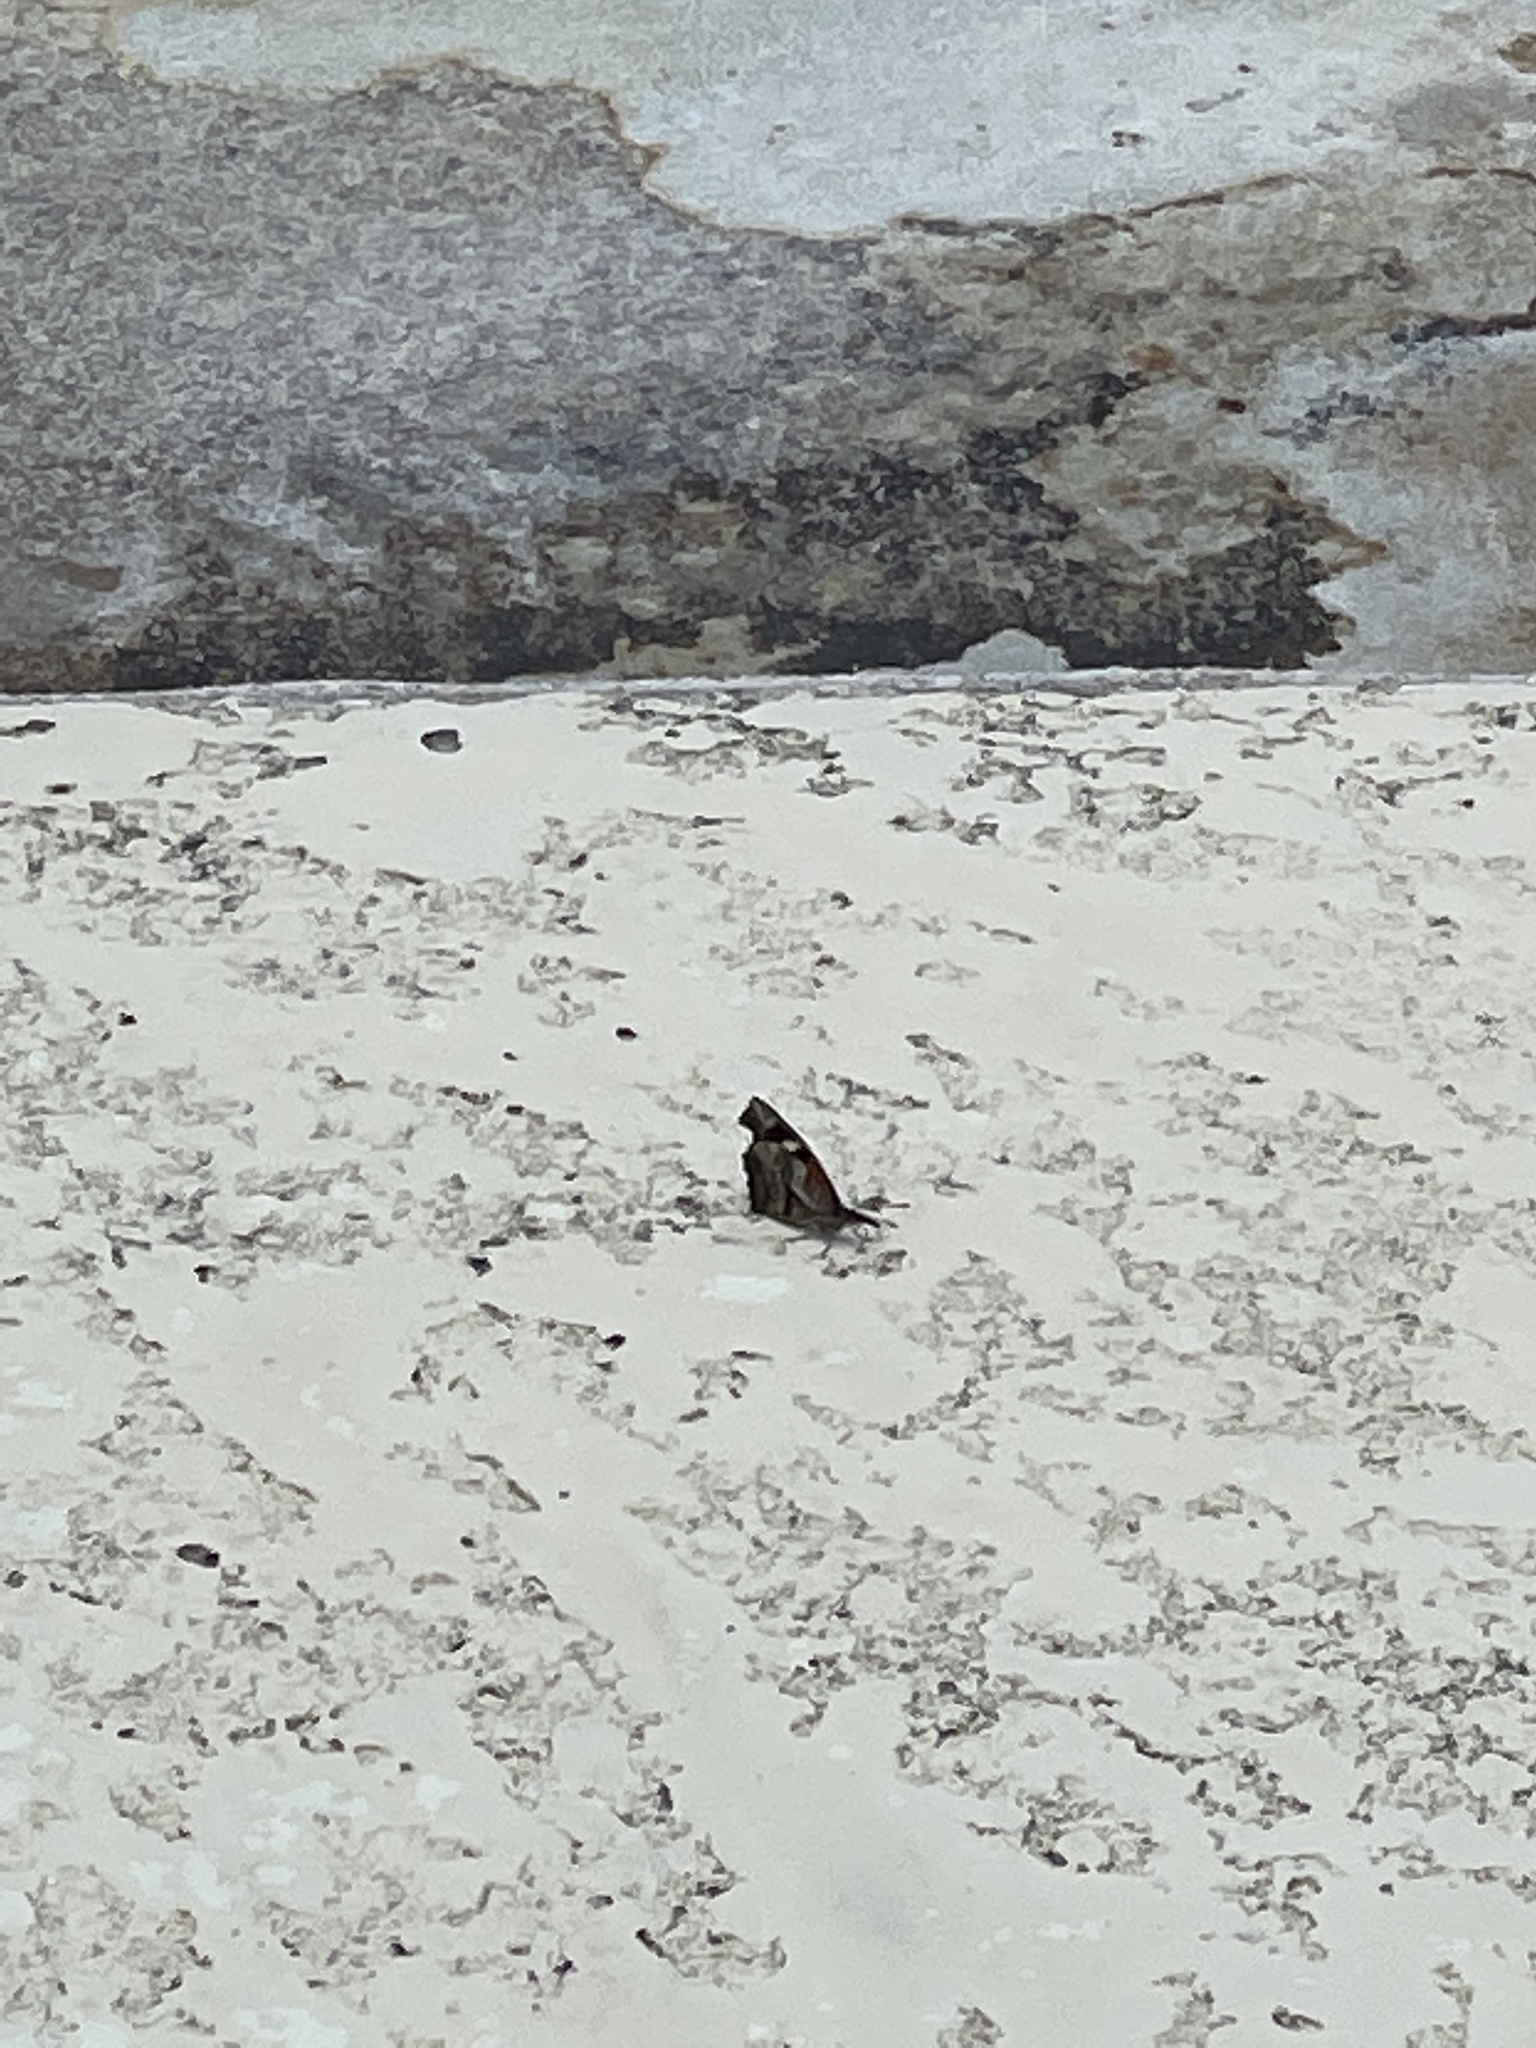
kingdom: Animalia
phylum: Arthropoda
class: Insecta
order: Lepidoptera
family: Nymphalidae
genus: Libytheana
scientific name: Libytheana carinenta
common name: American snout
